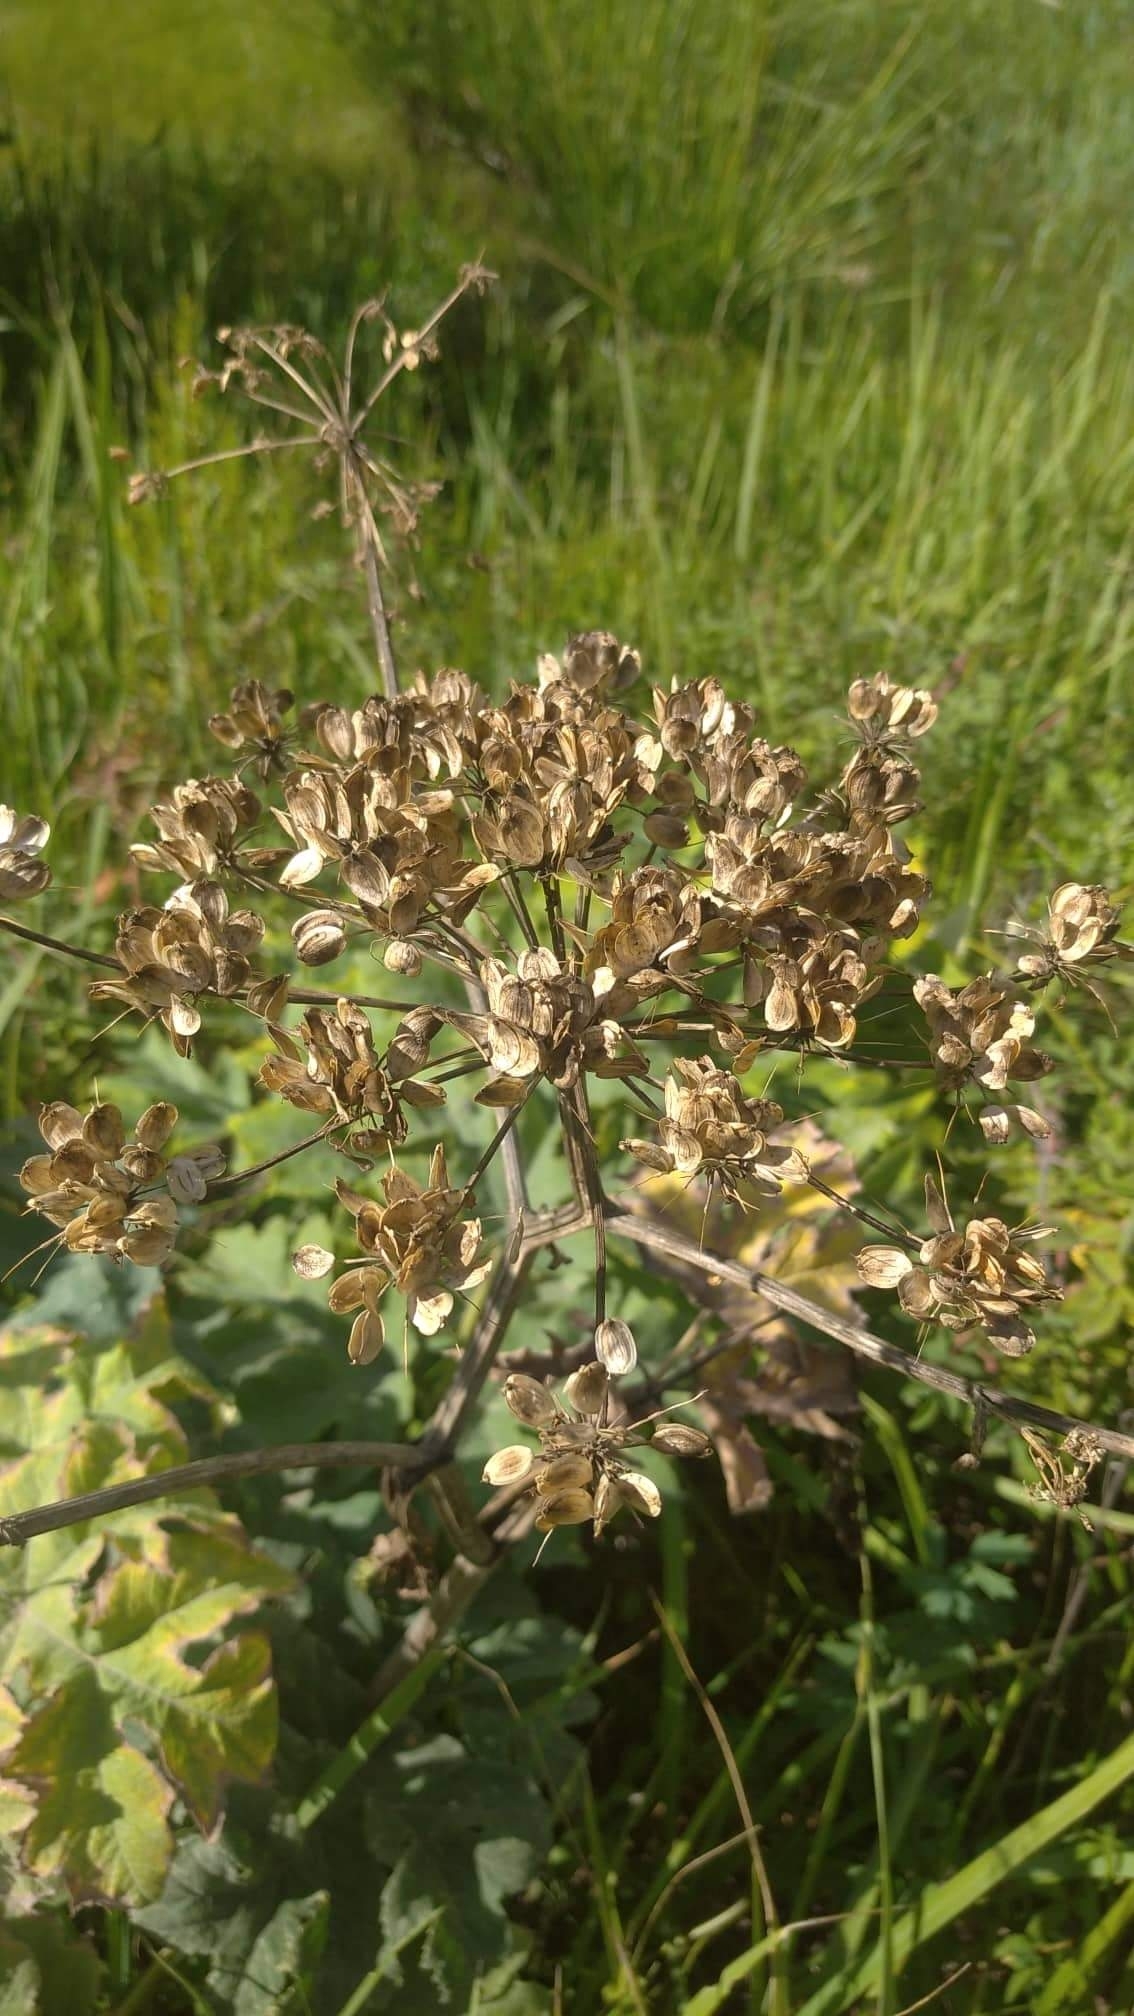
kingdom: Plantae
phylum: Tracheophyta
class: Magnoliopsida
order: Apiales
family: Apiaceae
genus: Heracleum
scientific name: Heracleum dissectum
